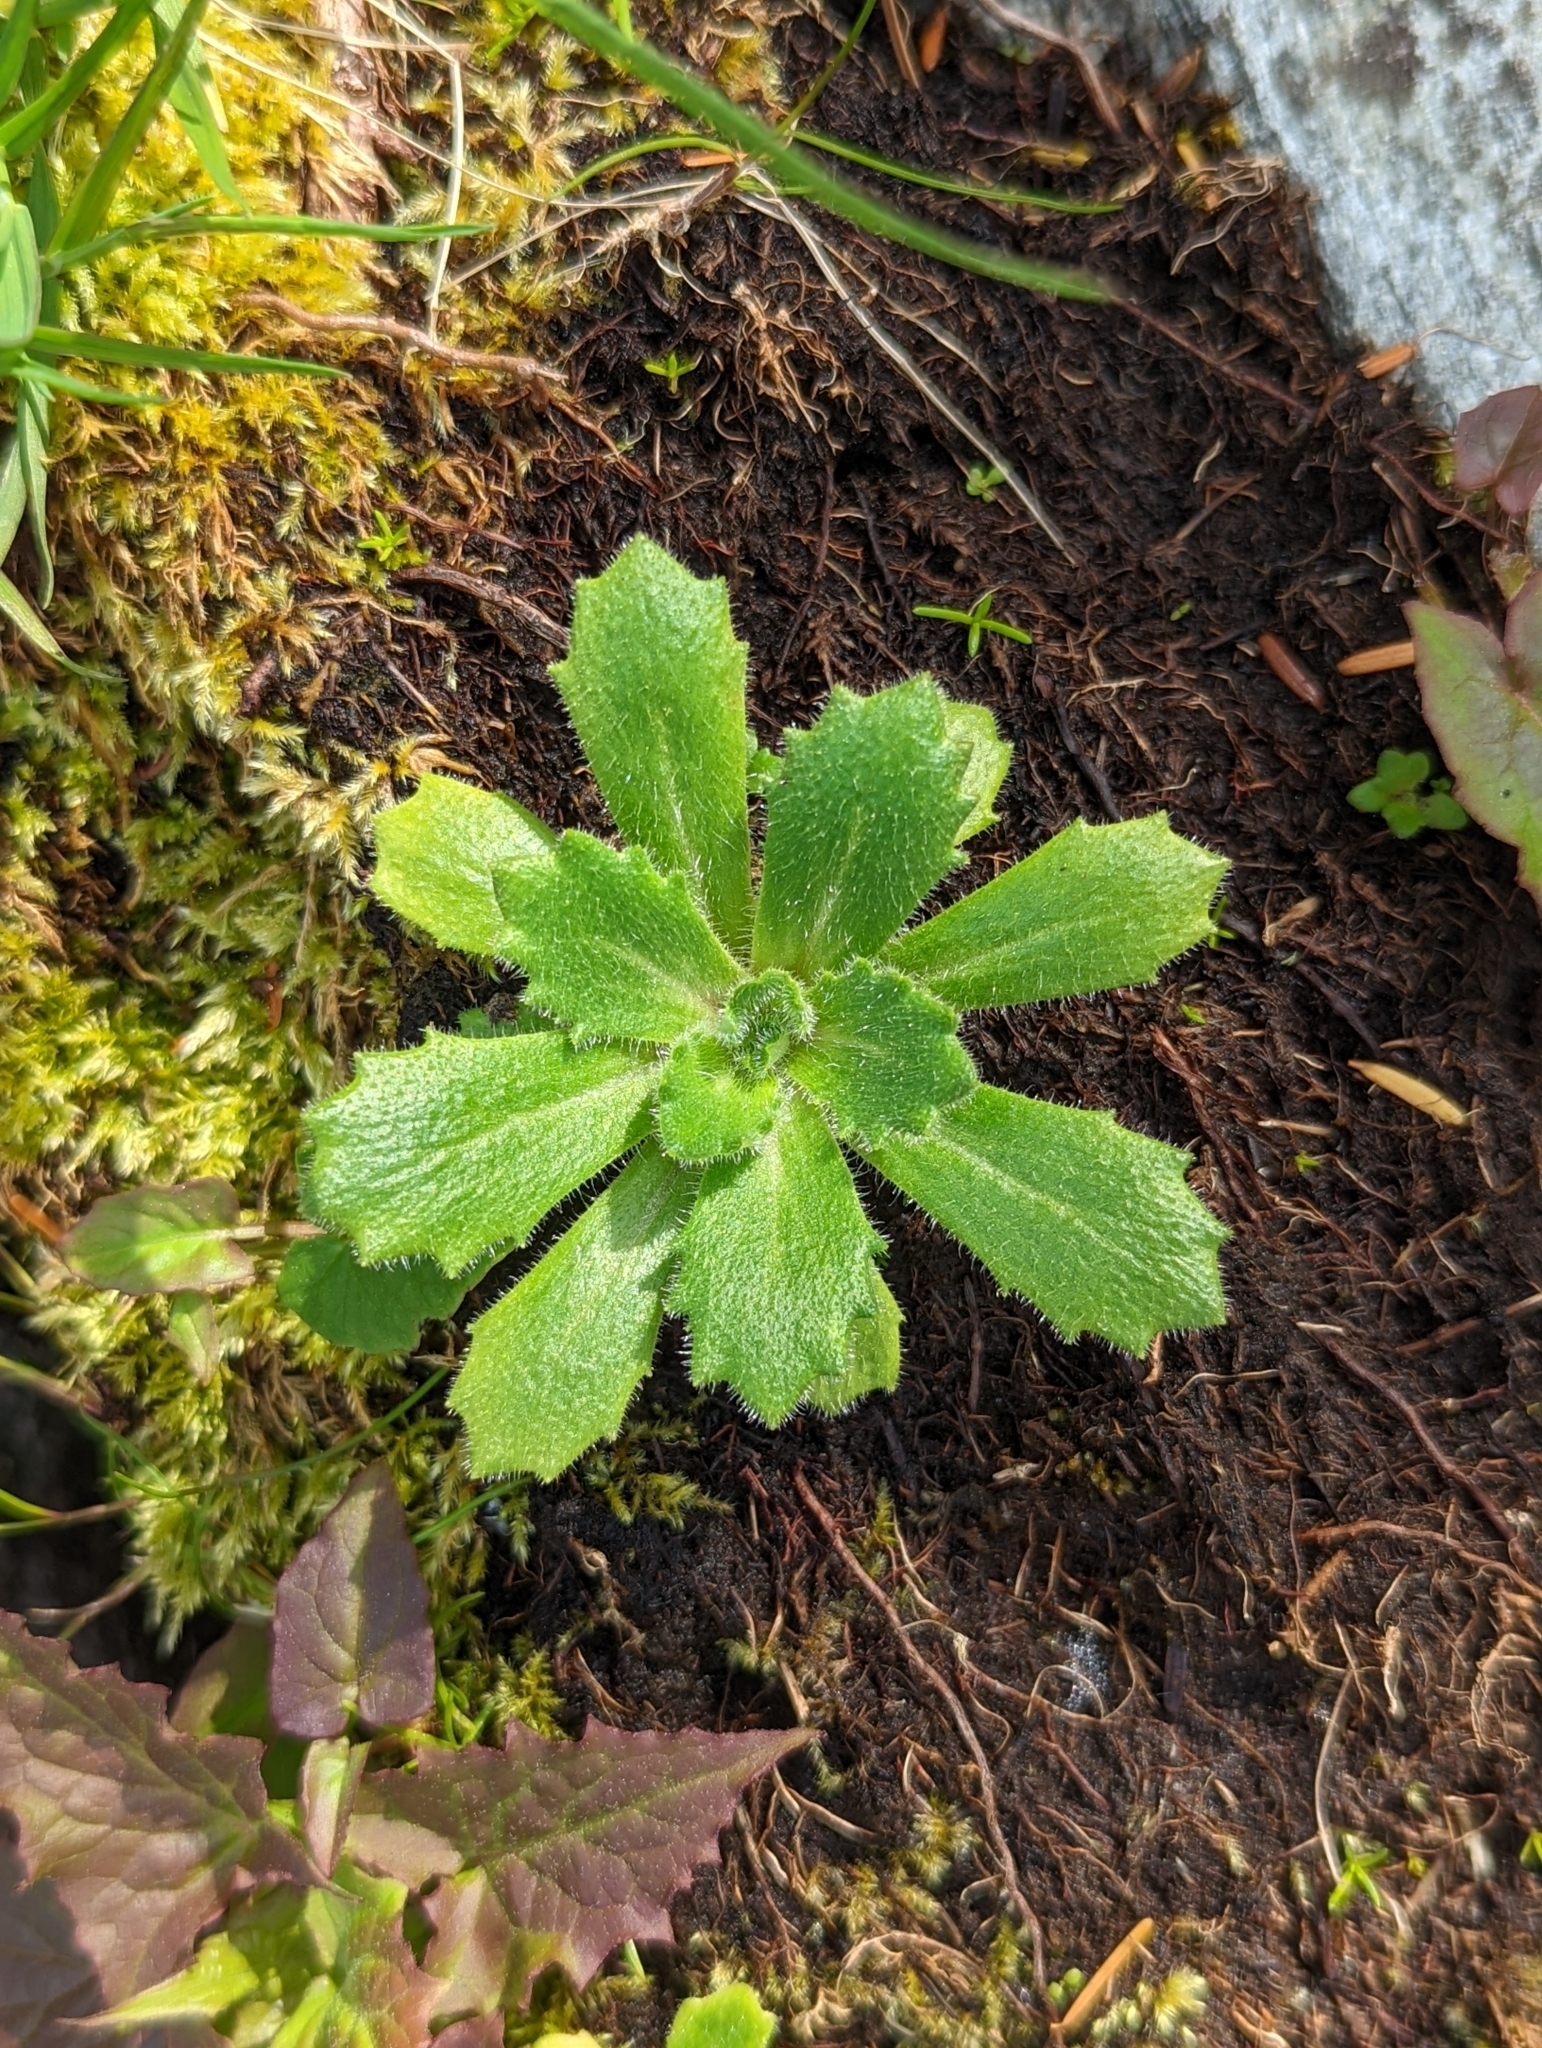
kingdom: Plantae
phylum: Tracheophyta
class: Magnoliopsida
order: Saxifragales
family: Saxifragaceae
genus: Micranthes
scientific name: Micranthes ferruginea
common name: Rusty saxifrage
